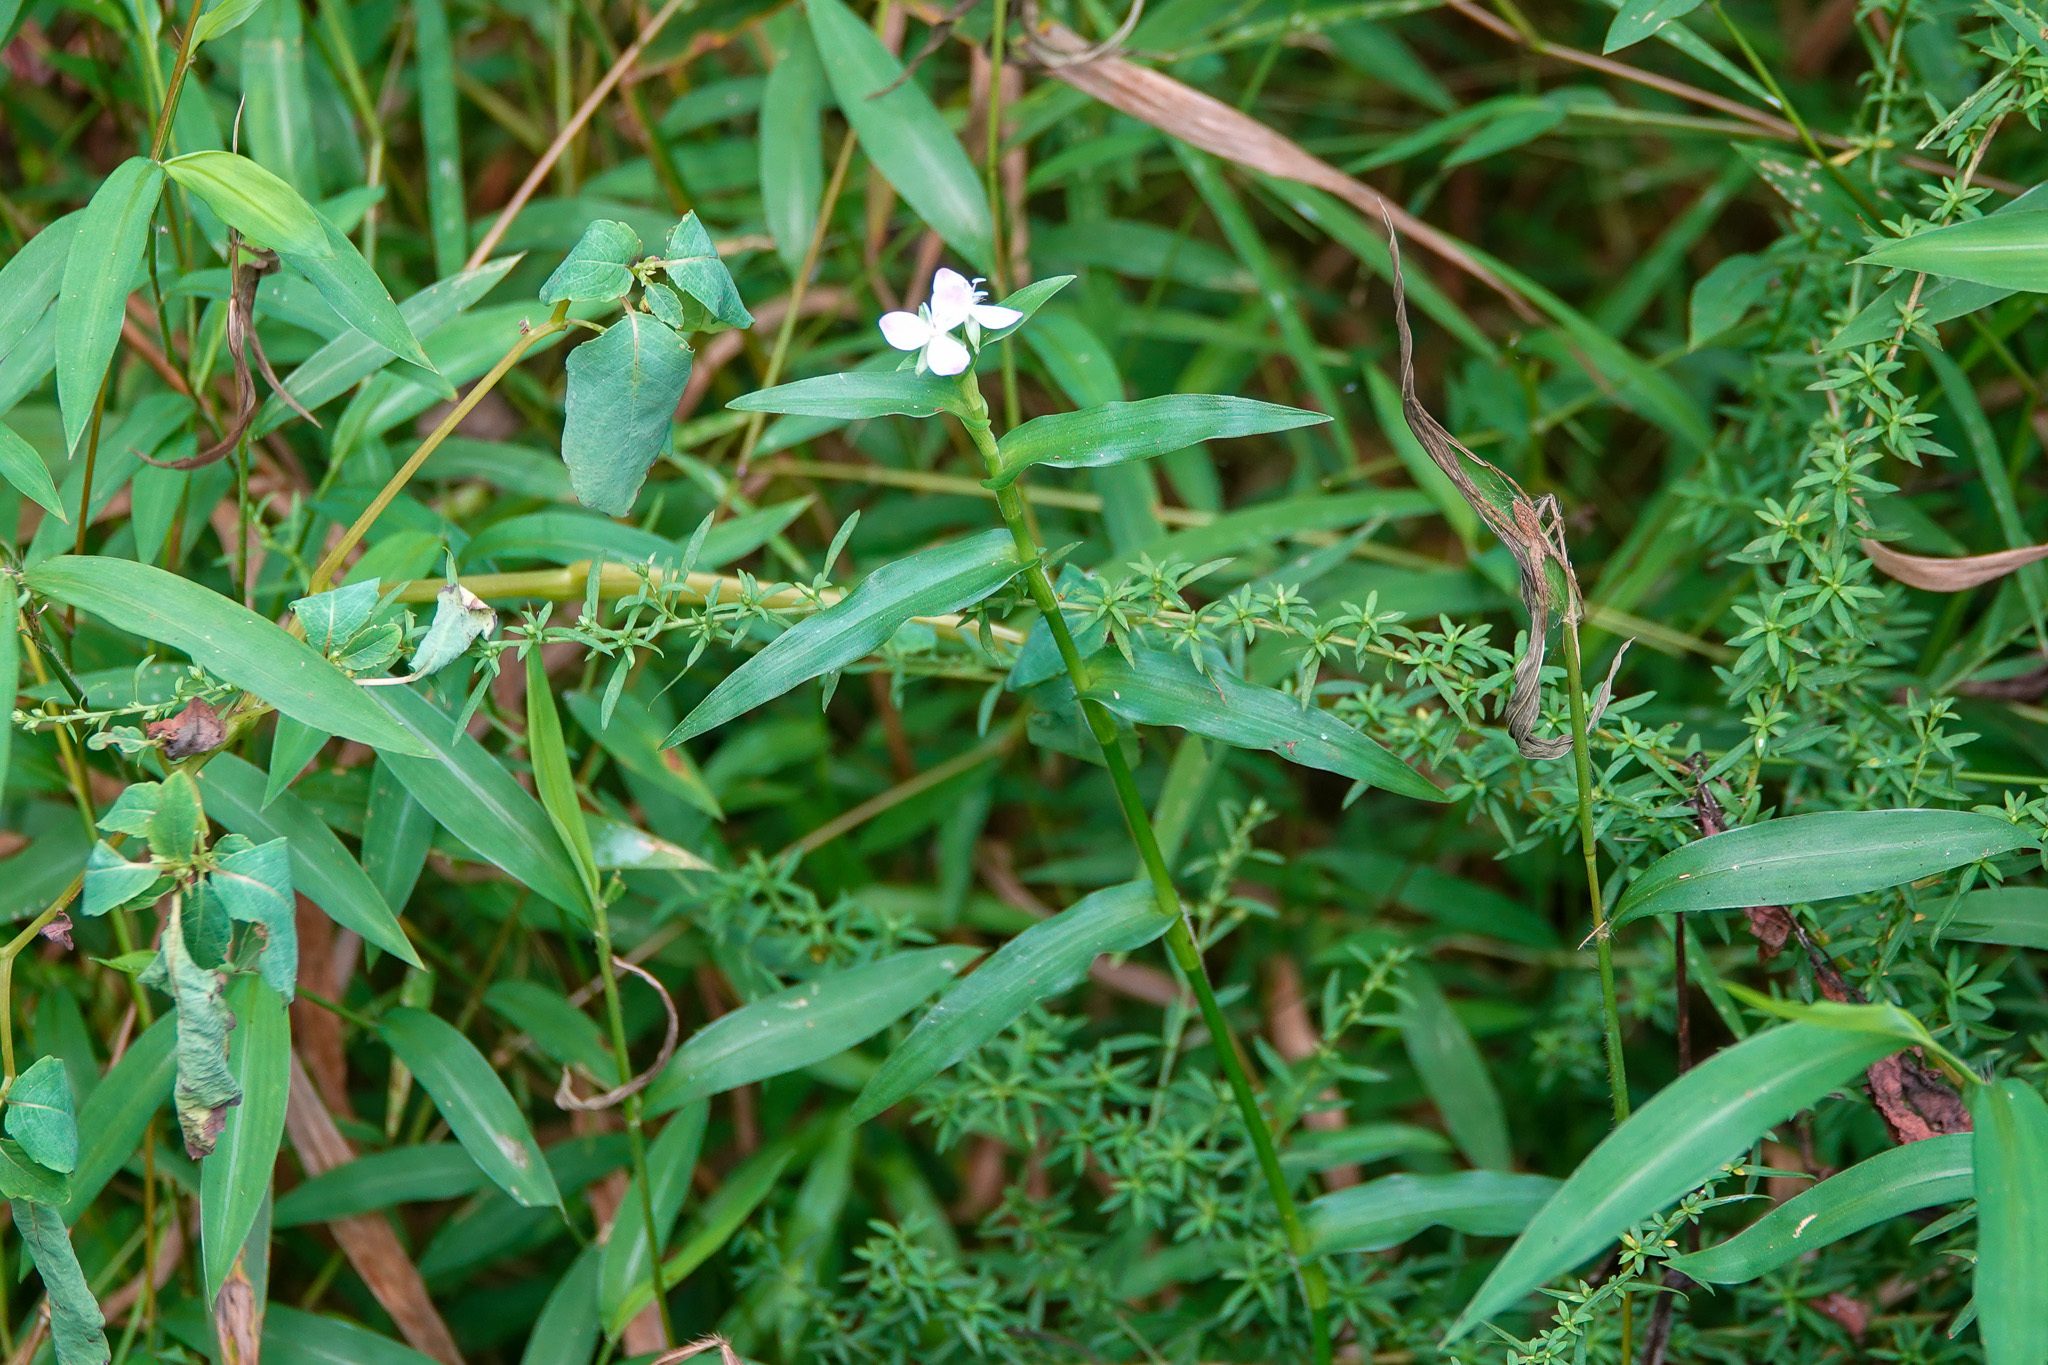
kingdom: Plantae
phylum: Tracheophyta
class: Liliopsida
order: Commelinales
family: Commelinaceae
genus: Murdannia
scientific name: Murdannia keisak
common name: Wartremoving herb
